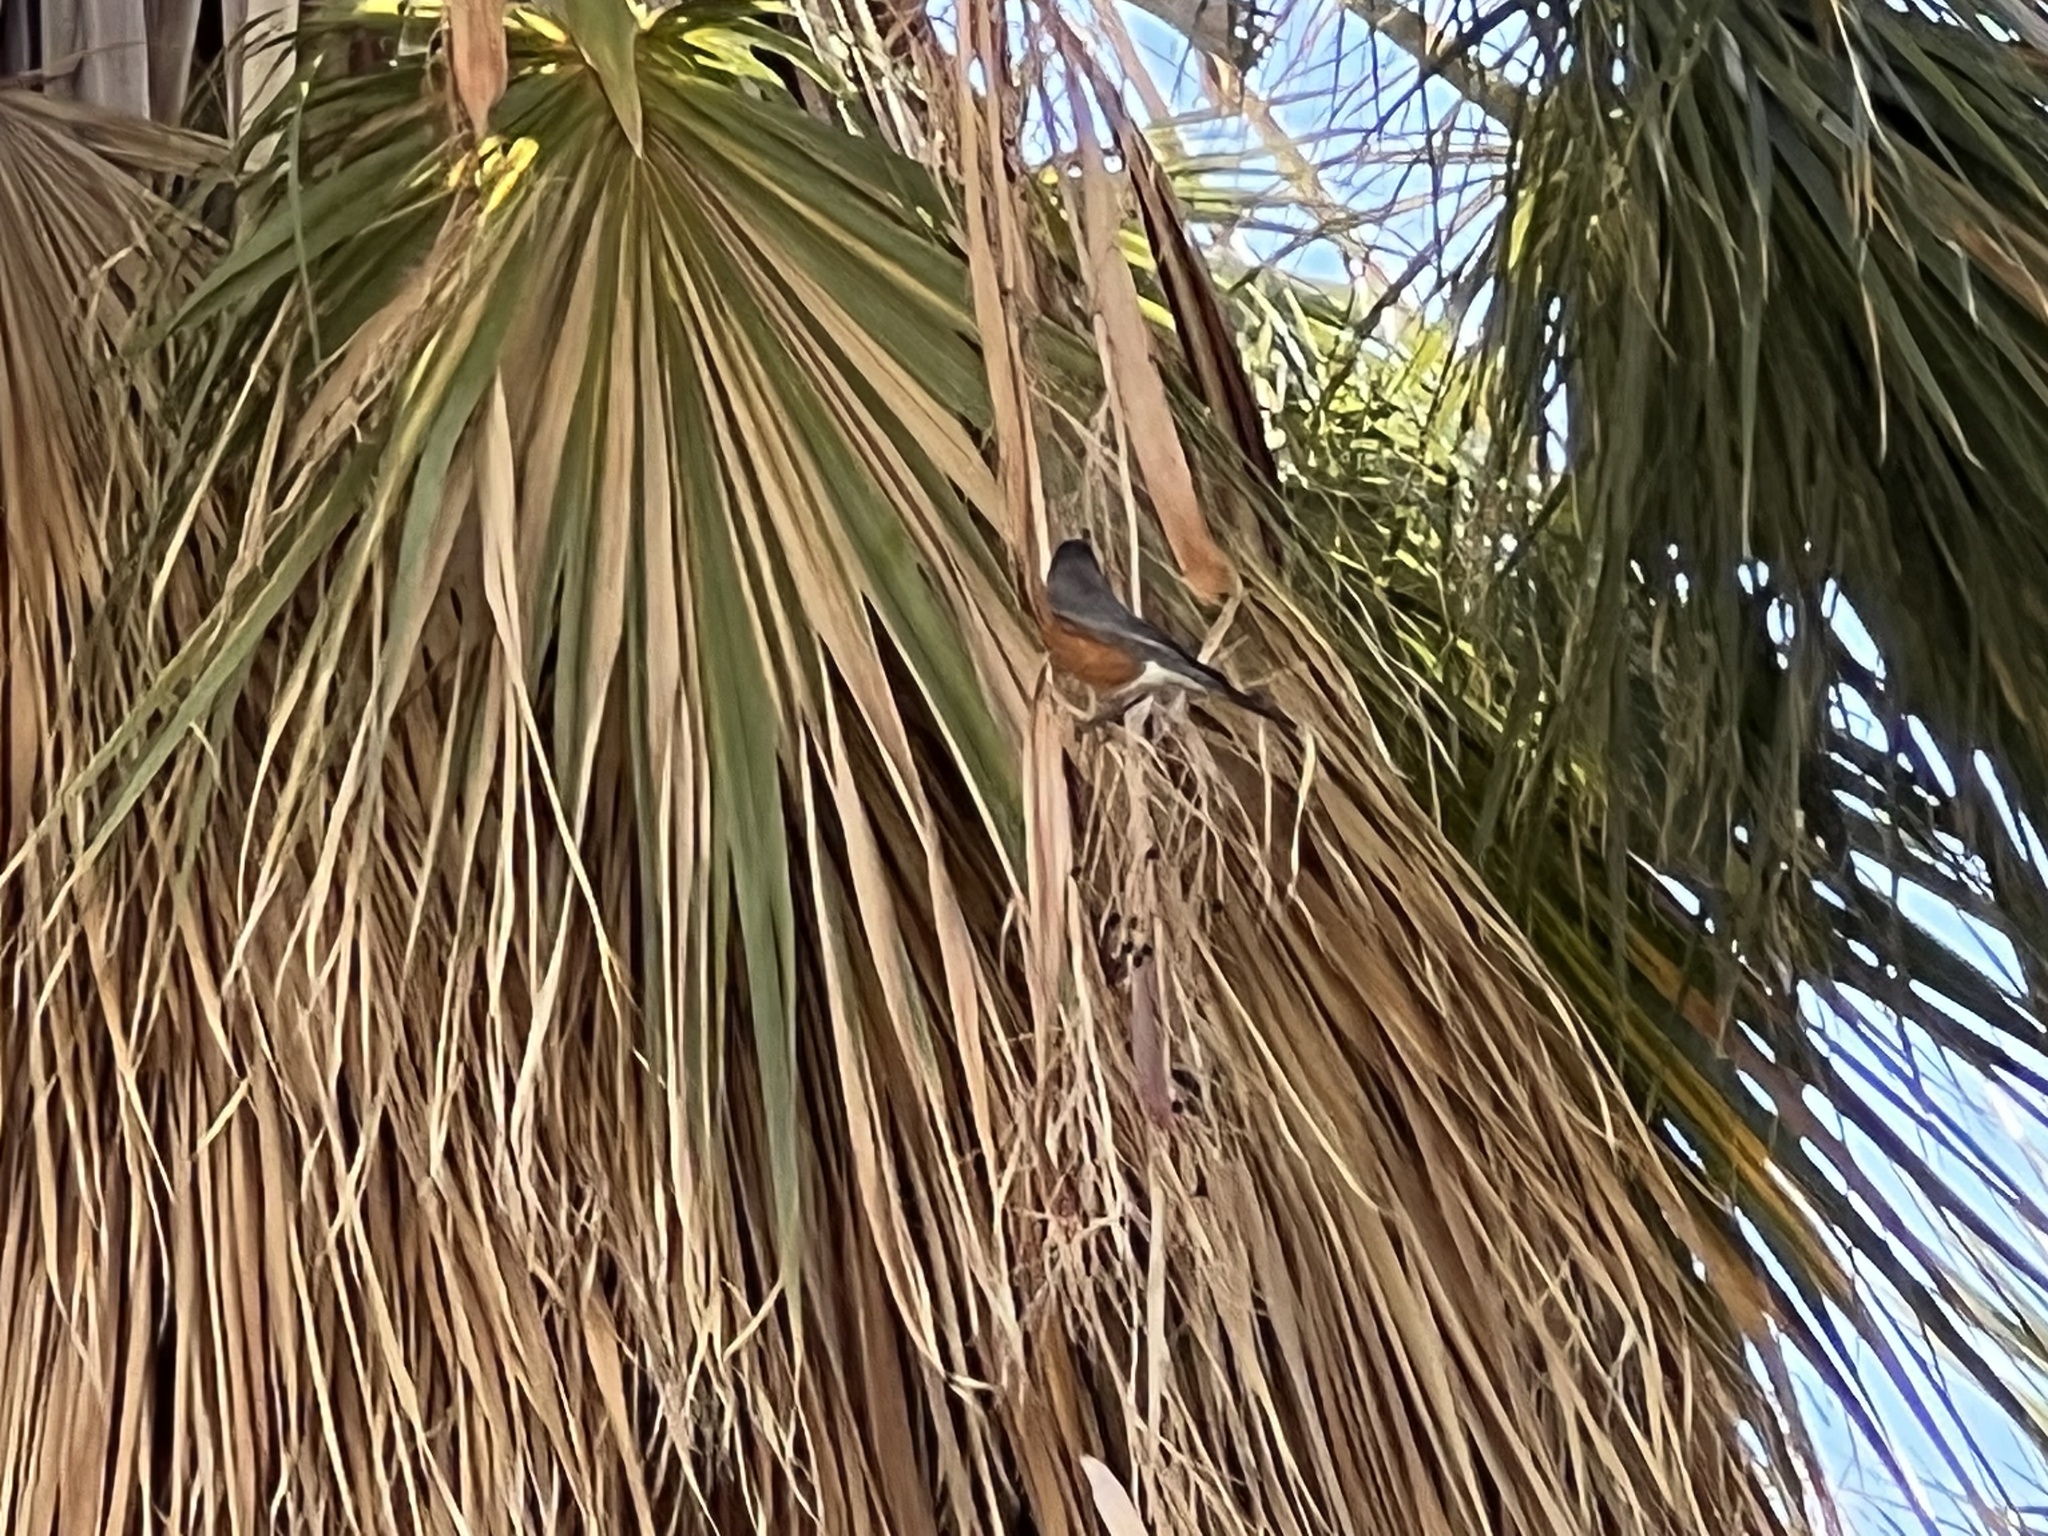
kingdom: Animalia
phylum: Chordata
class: Aves
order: Passeriformes
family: Turdidae
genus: Turdus
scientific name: Turdus migratorius
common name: American robin
